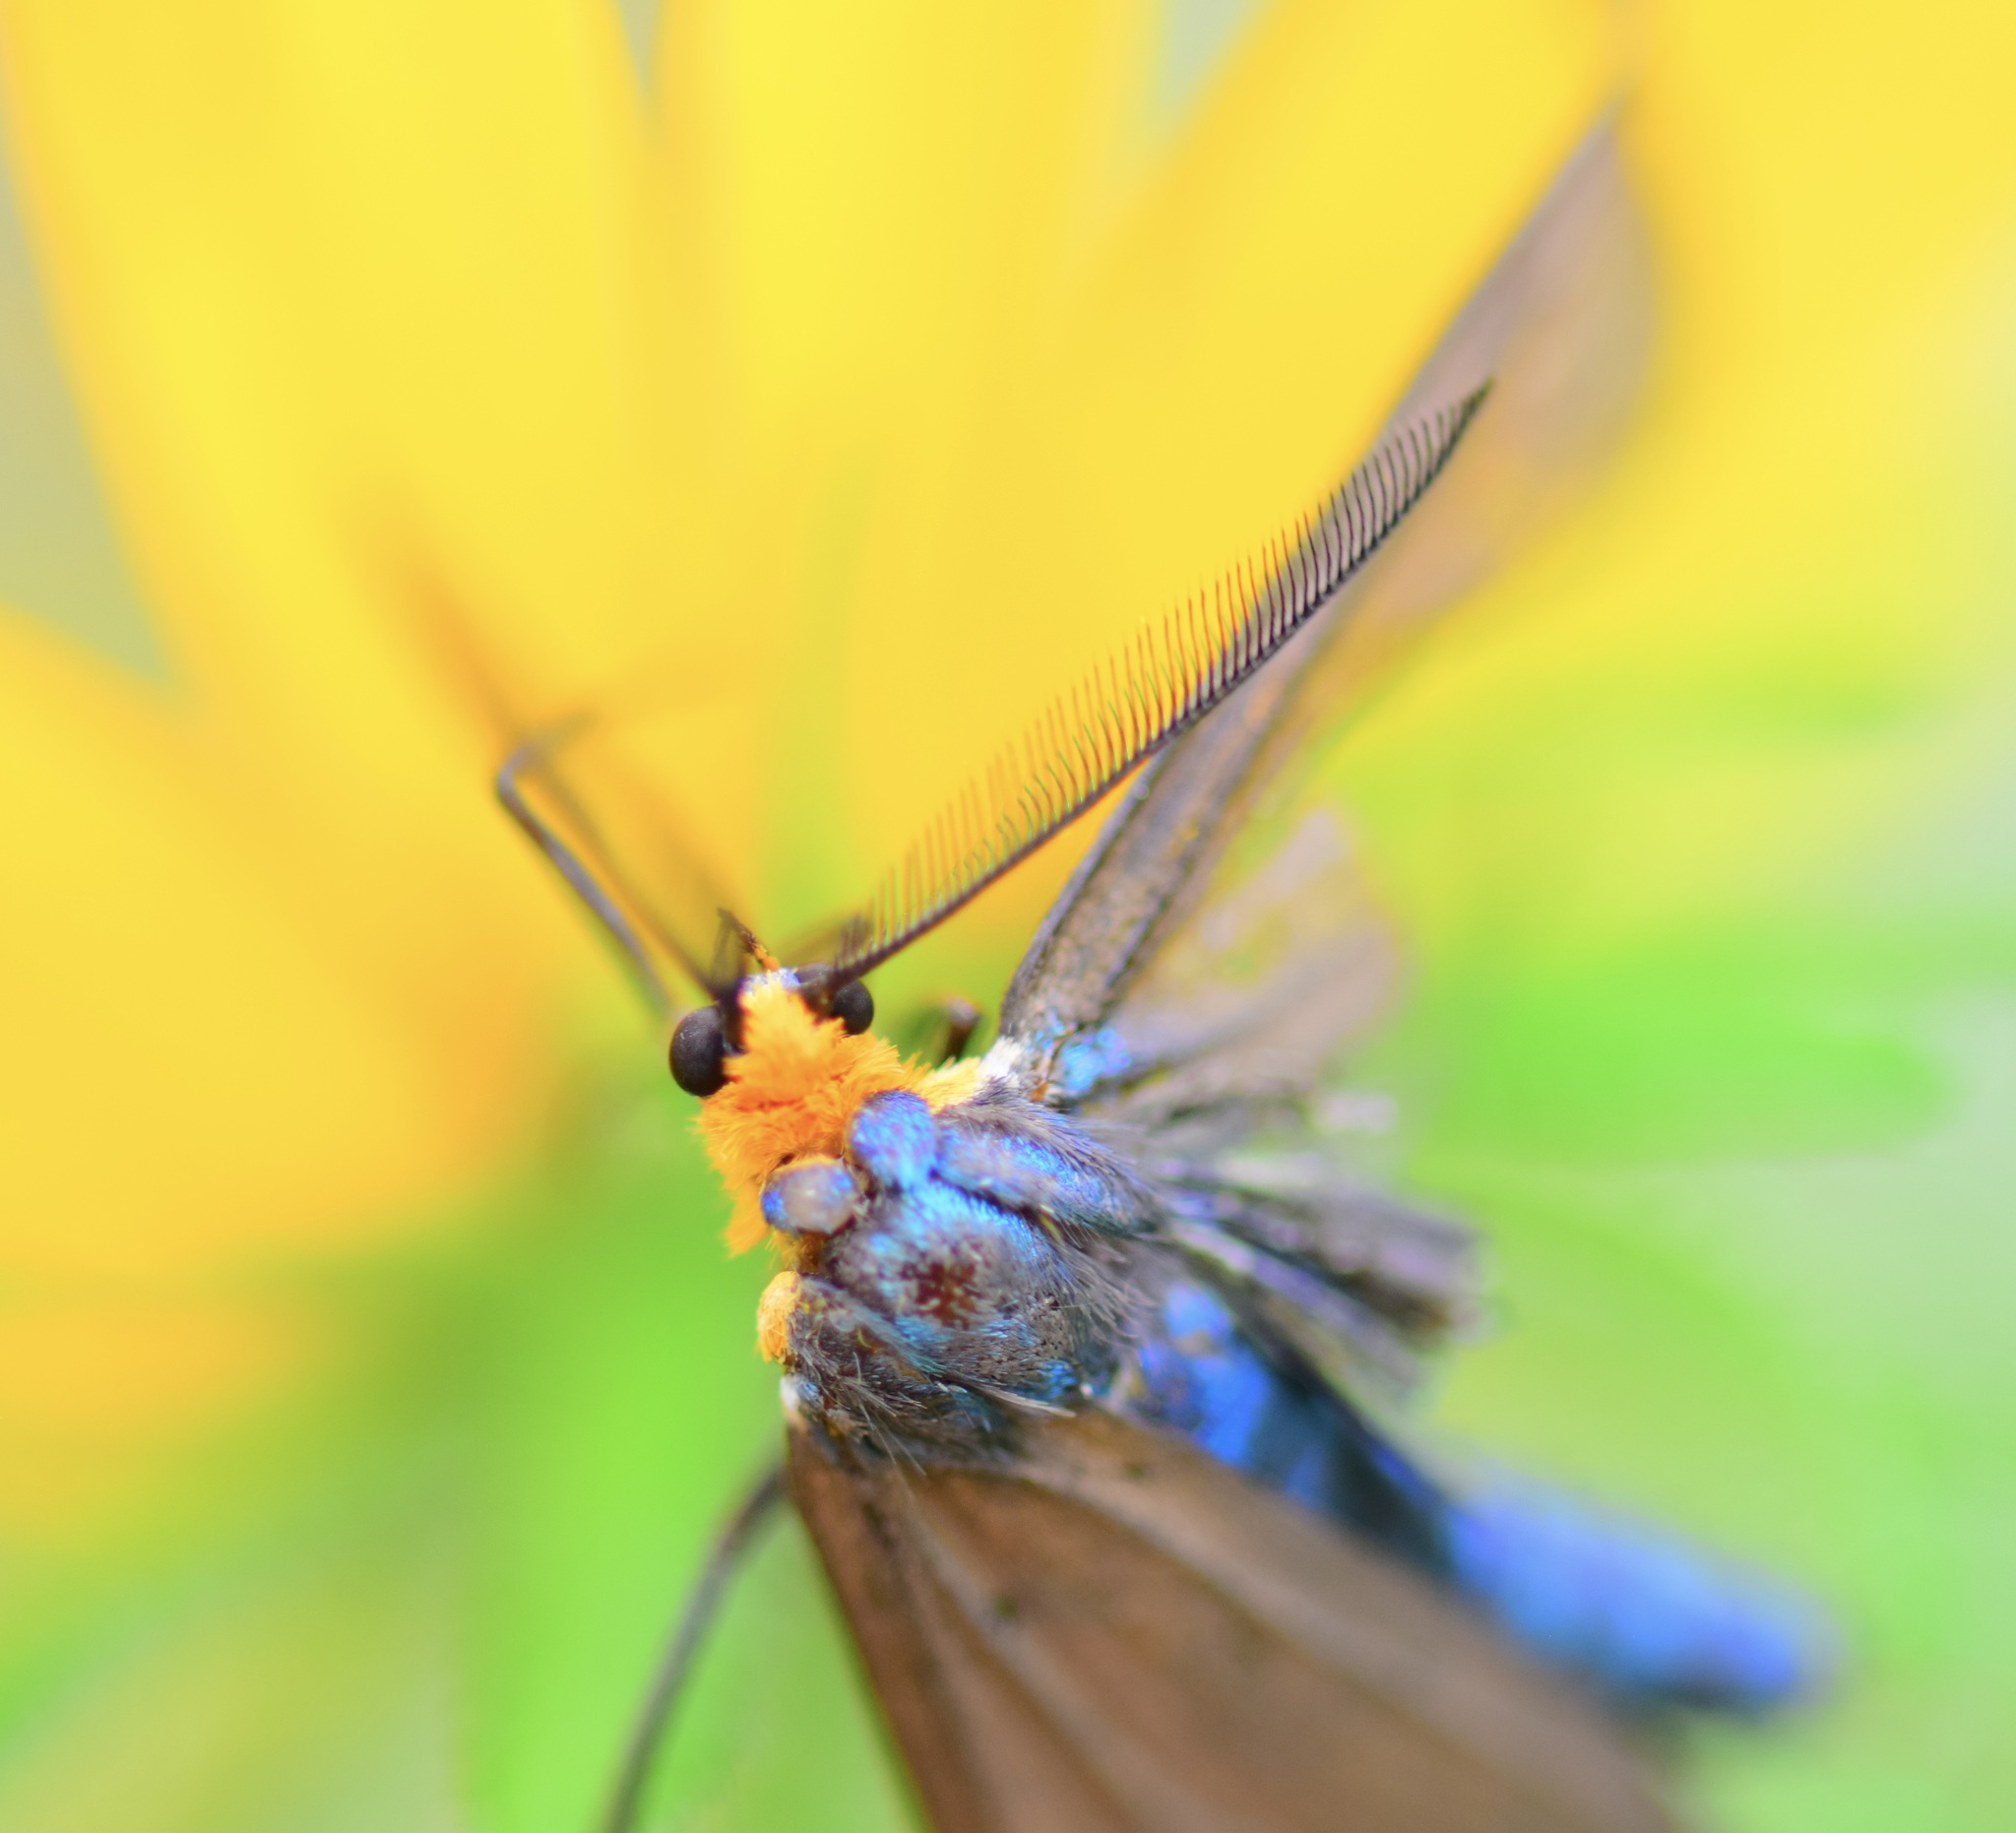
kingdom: Animalia
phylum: Arthropoda
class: Insecta
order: Lepidoptera
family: Erebidae
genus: Ctenucha
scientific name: Ctenucha virginica
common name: Virginia ctenucha moth
